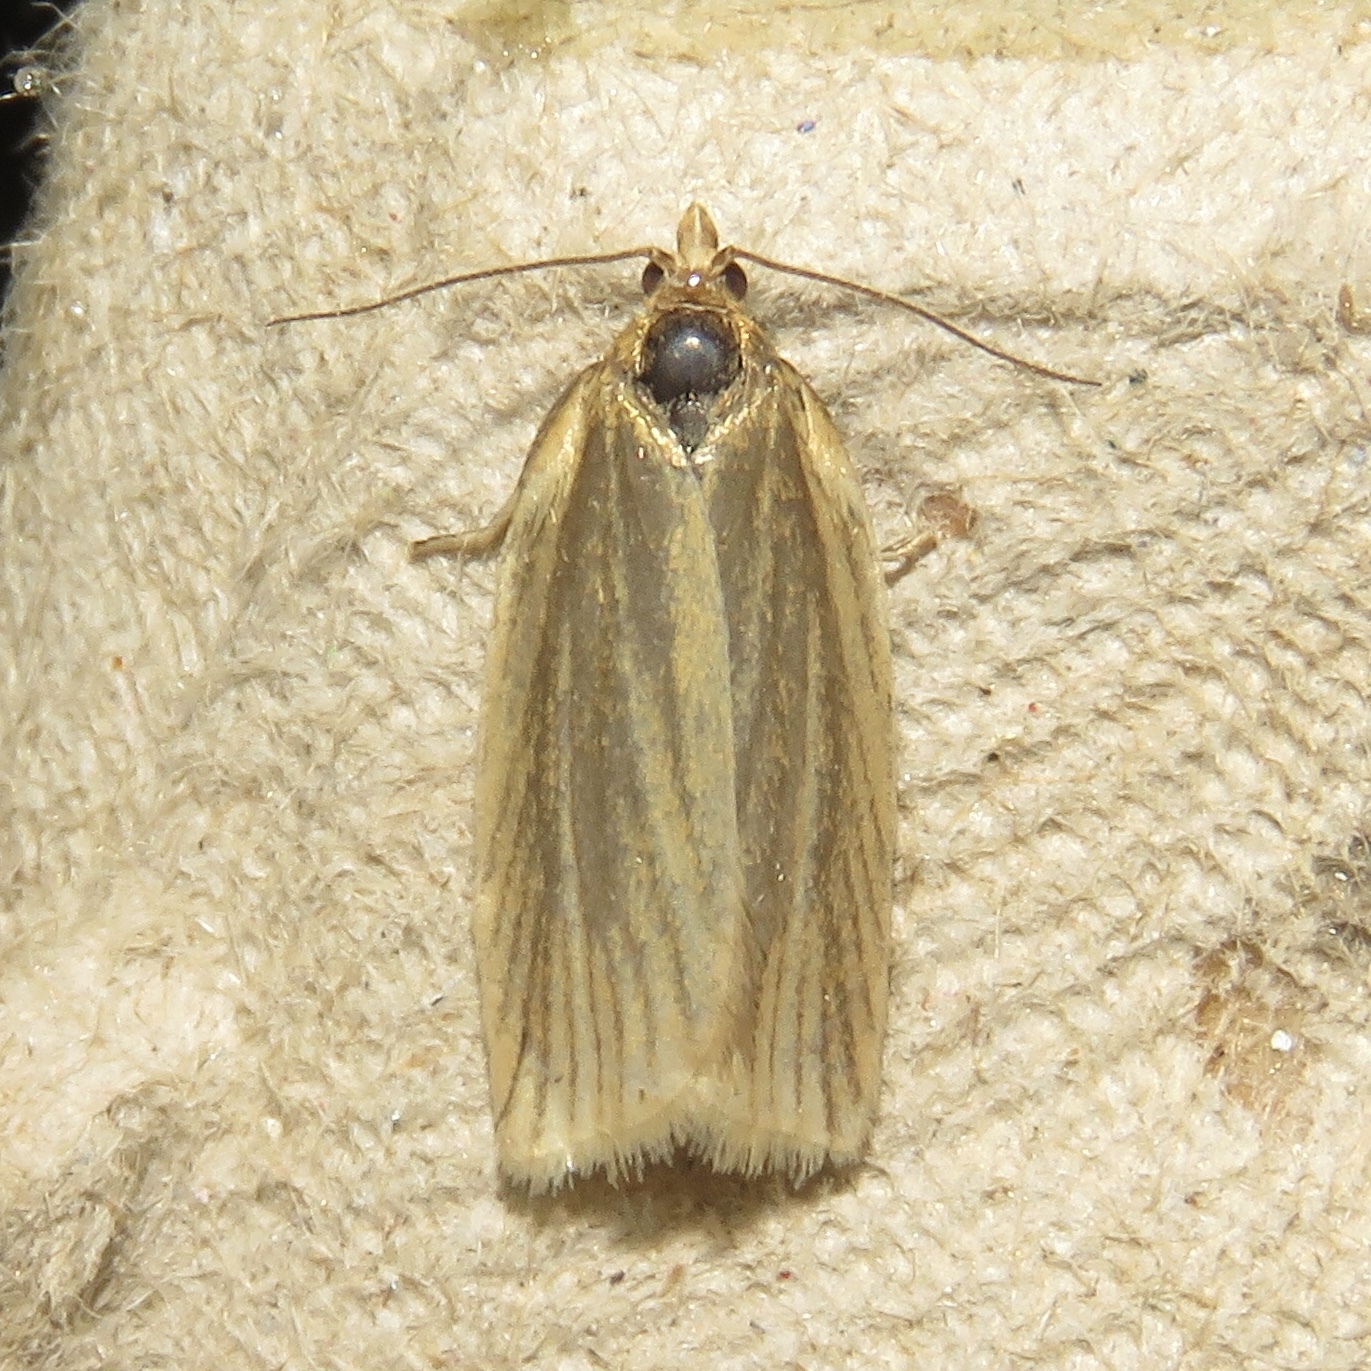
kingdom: Animalia
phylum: Arthropoda
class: Insecta
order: Lepidoptera
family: Tortricidae
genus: Clepsis
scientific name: Clepsis clemensiana
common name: Clemens' clepsis moth
